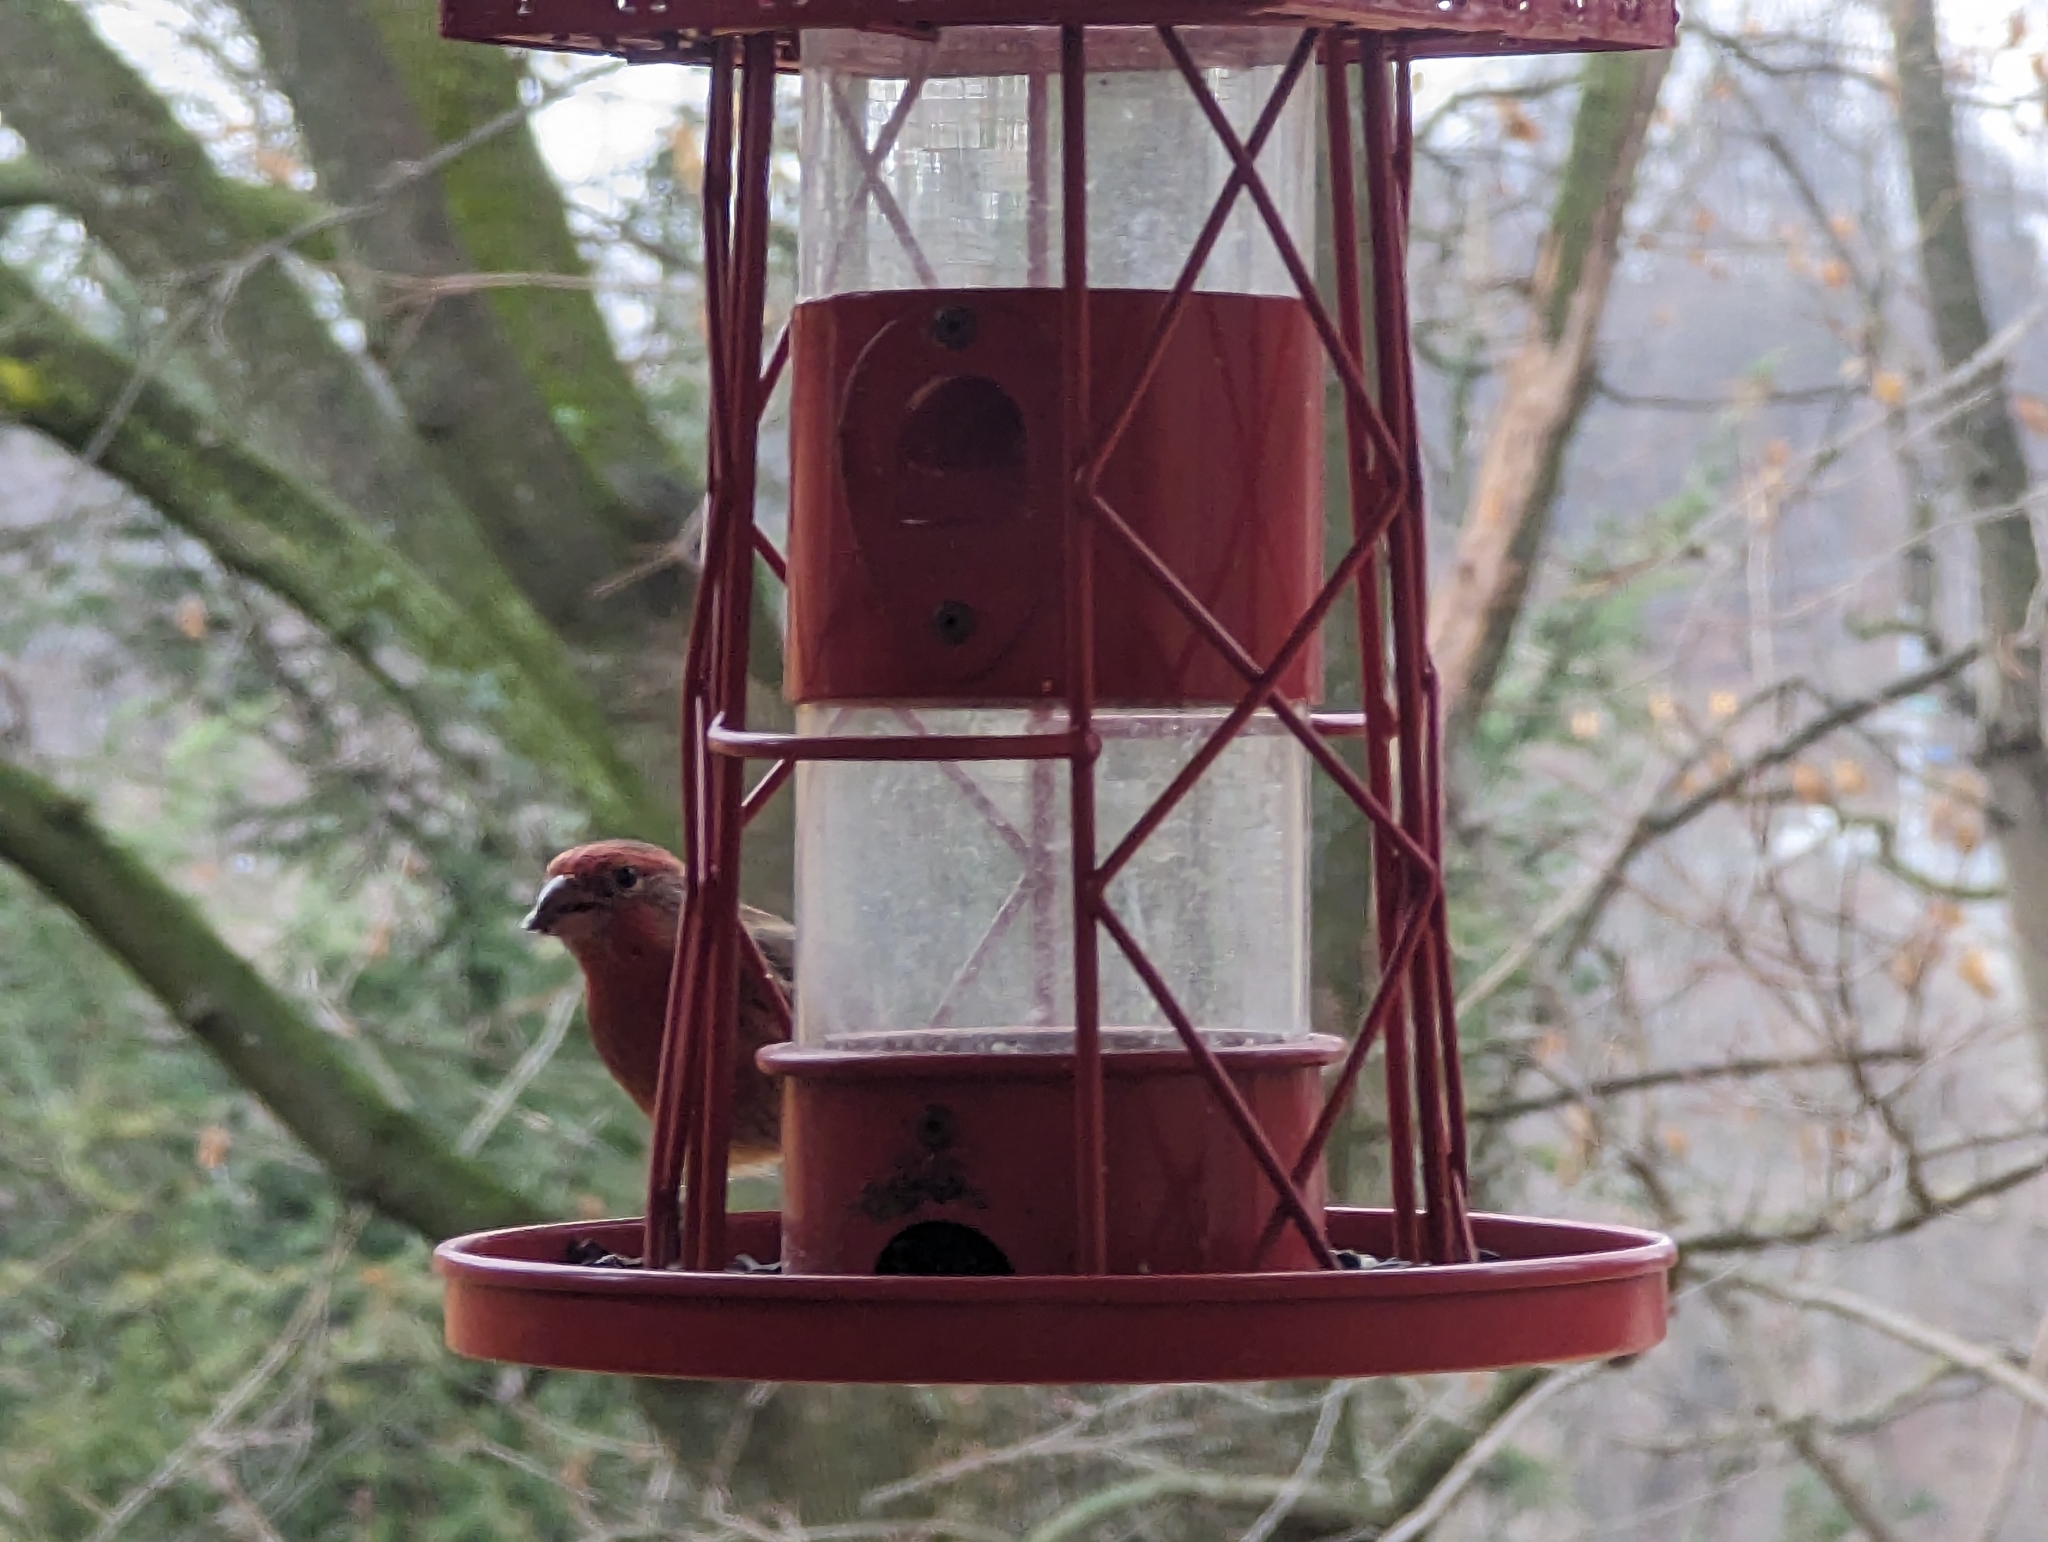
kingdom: Animalia
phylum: Chordata
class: Aves
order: Passeriformes
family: Fringillidae
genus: Haemorhous
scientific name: Haemorhous mexicanus
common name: House finch
